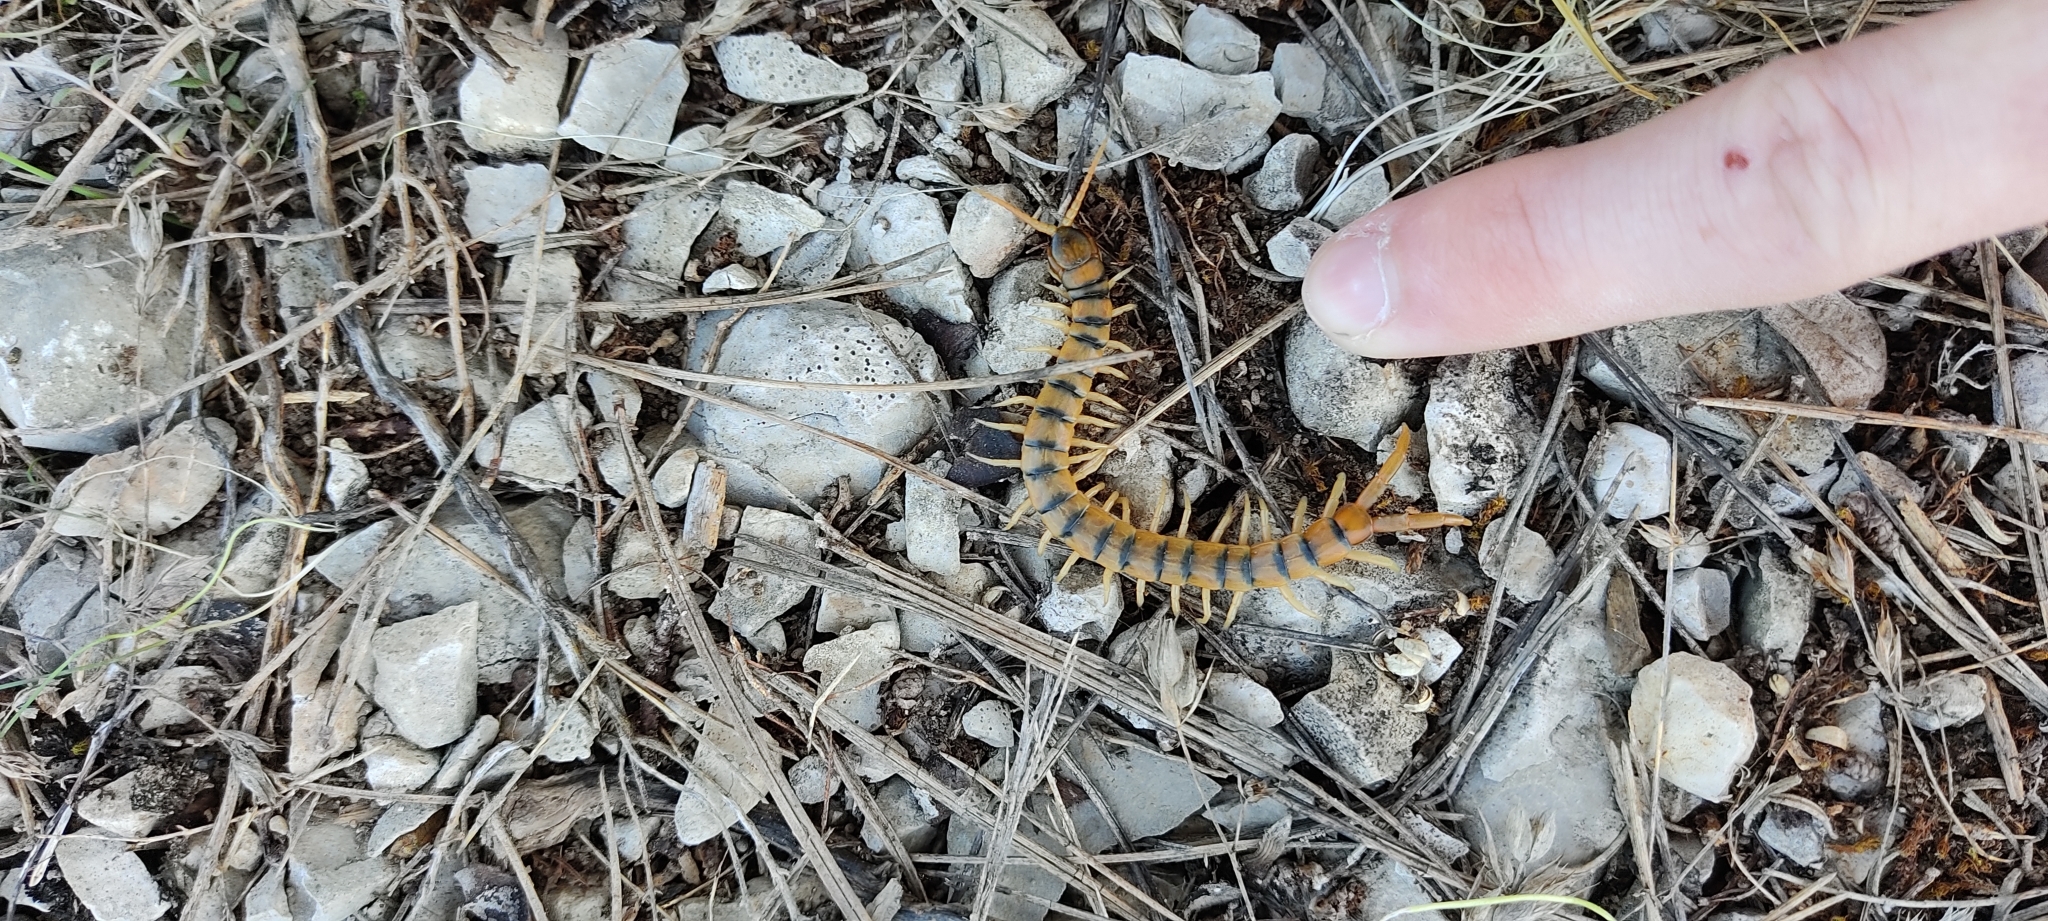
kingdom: Animalia
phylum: Arthropoda
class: Chilopoda
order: Scolopendromorpha
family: Scolopendridae
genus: Scolopendra
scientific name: Scolopendra cingulata
